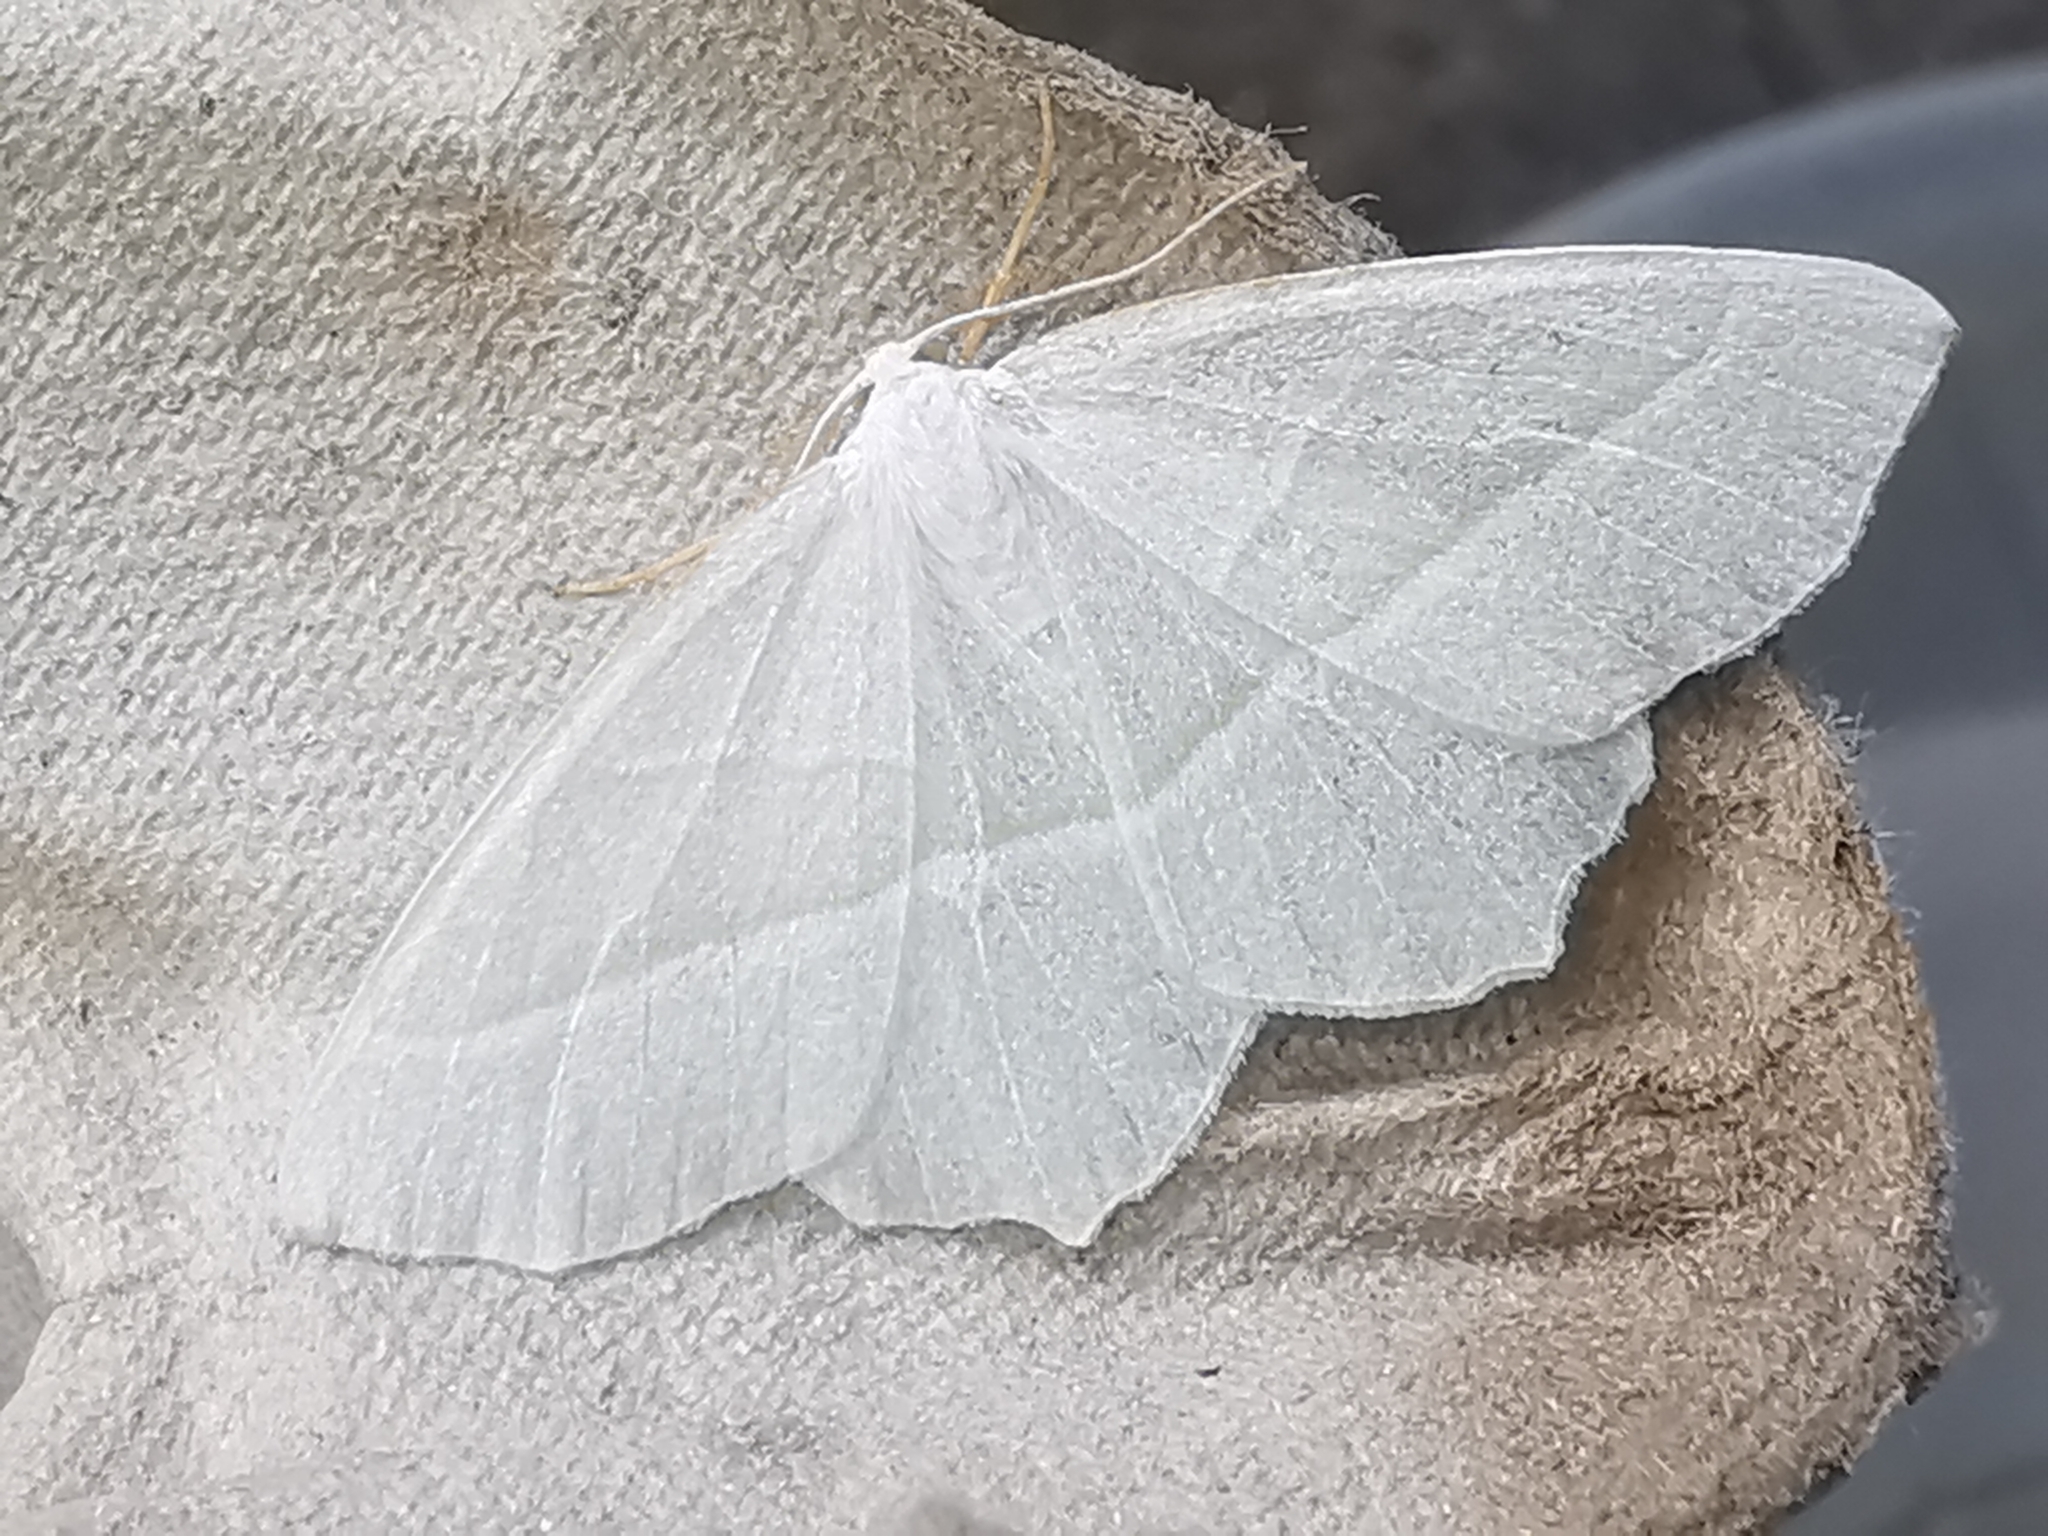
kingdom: Animalia
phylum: Arthropoda
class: Insecta
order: Lepidoptera
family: Geometridae
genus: Campaea
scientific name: Campaea margaritaria
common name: Light emerald
